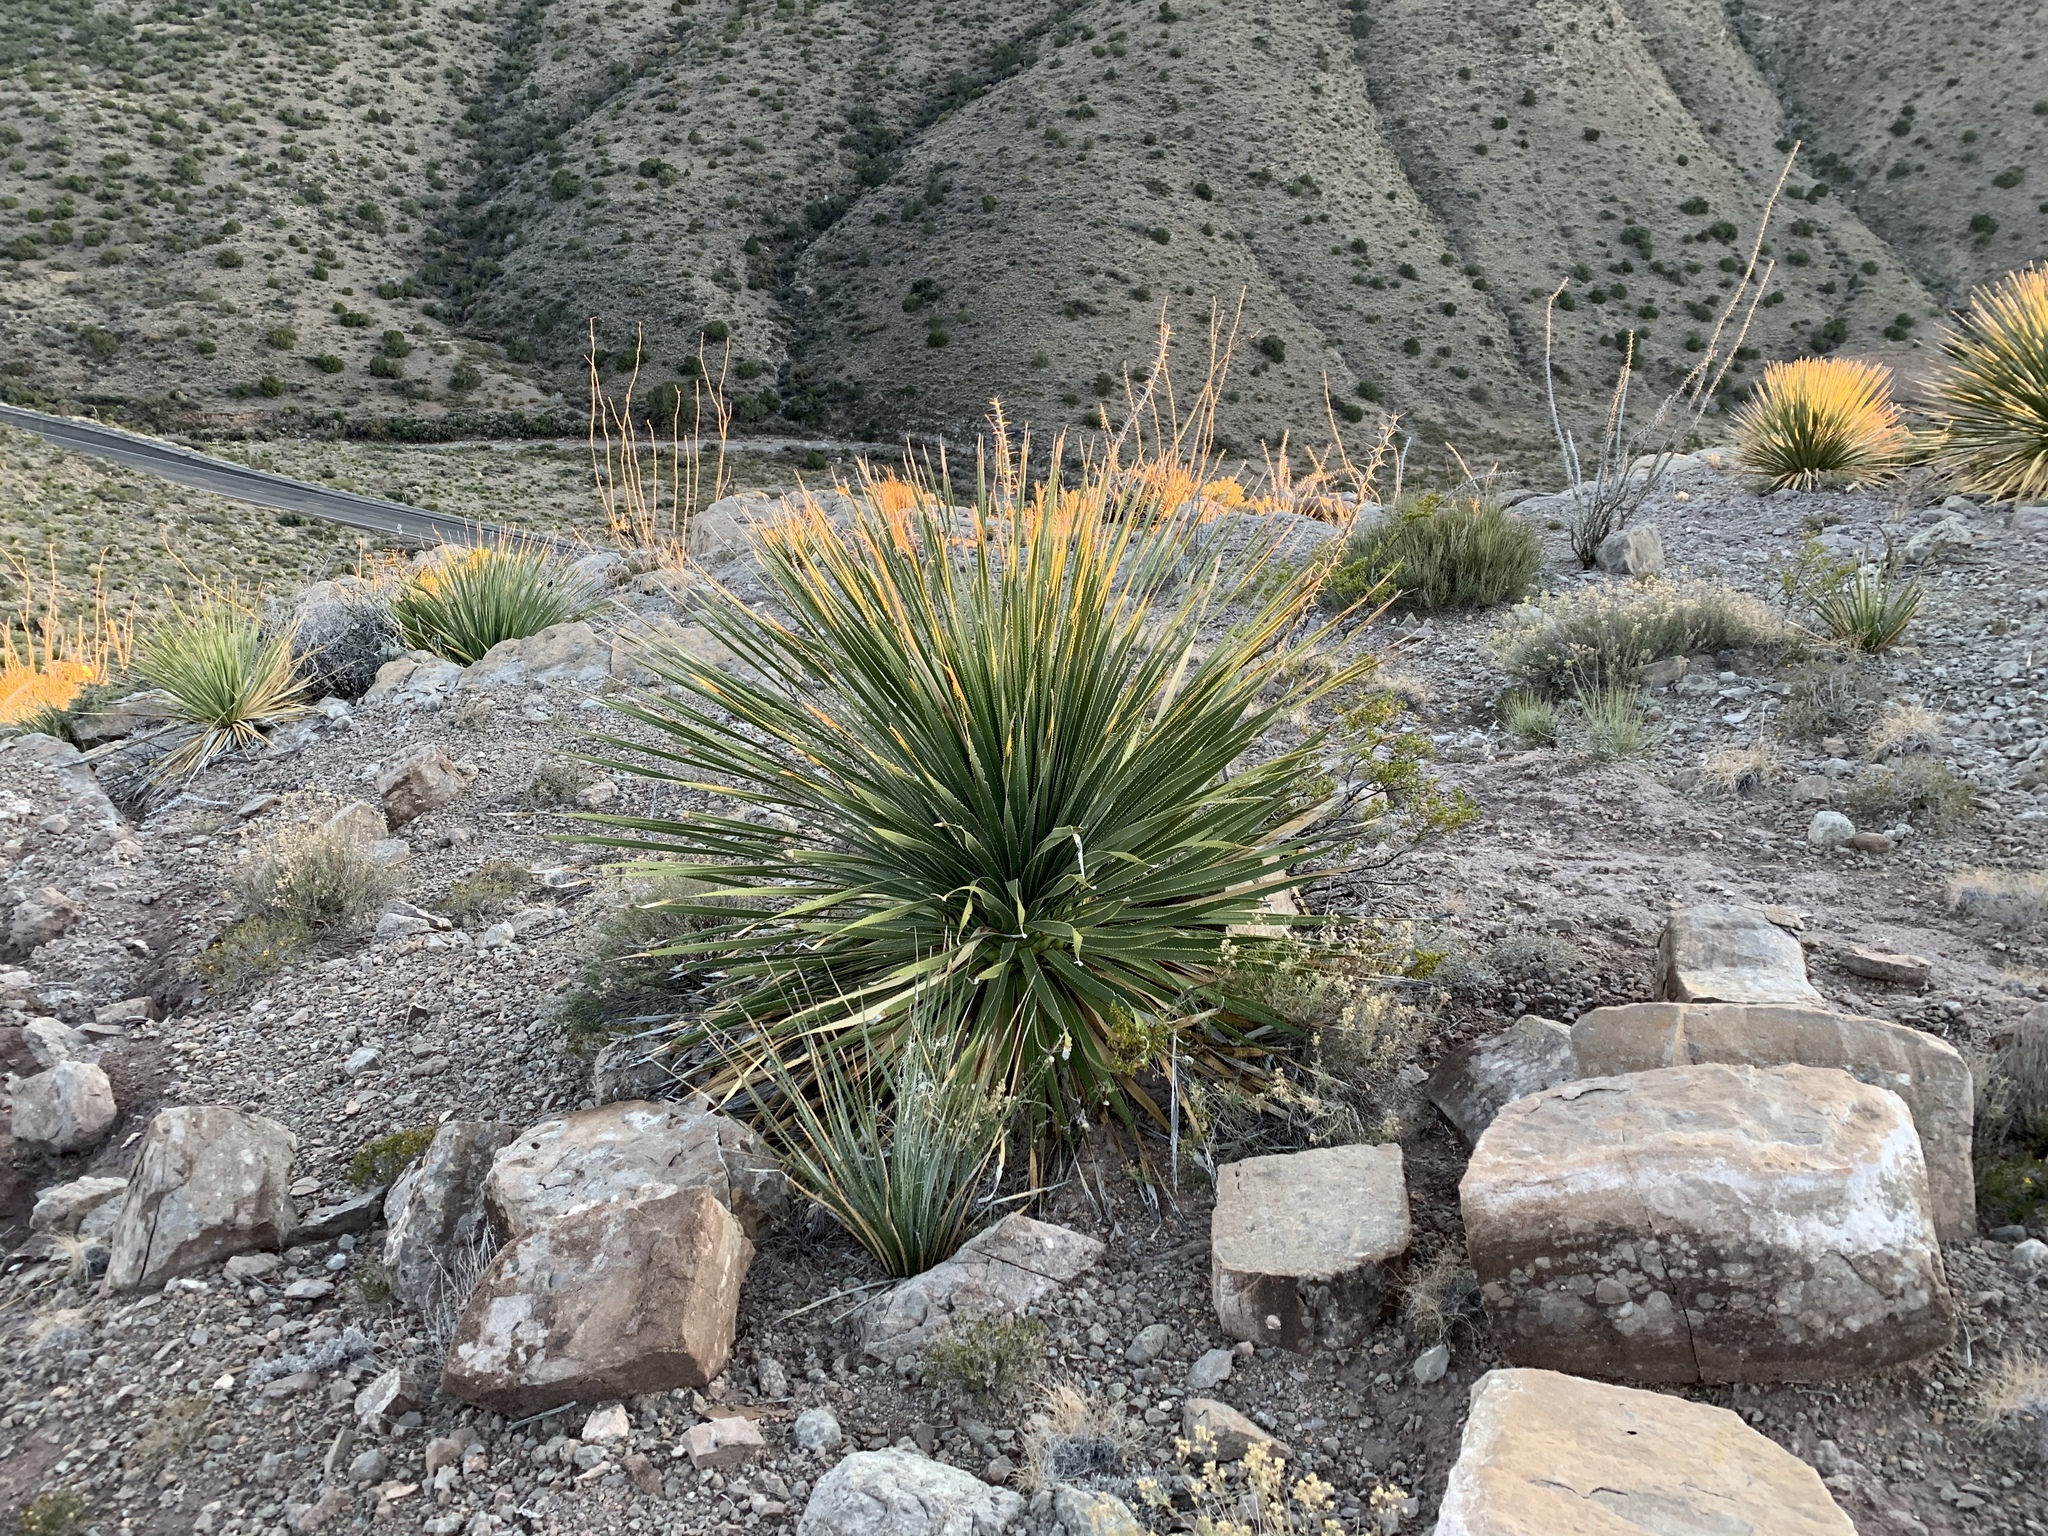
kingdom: Plantae
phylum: Tracheophyta
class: Liliopsida
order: Asparagales
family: Asparagaceae
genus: Dasylirion
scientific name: Dasylirion wheeleri
